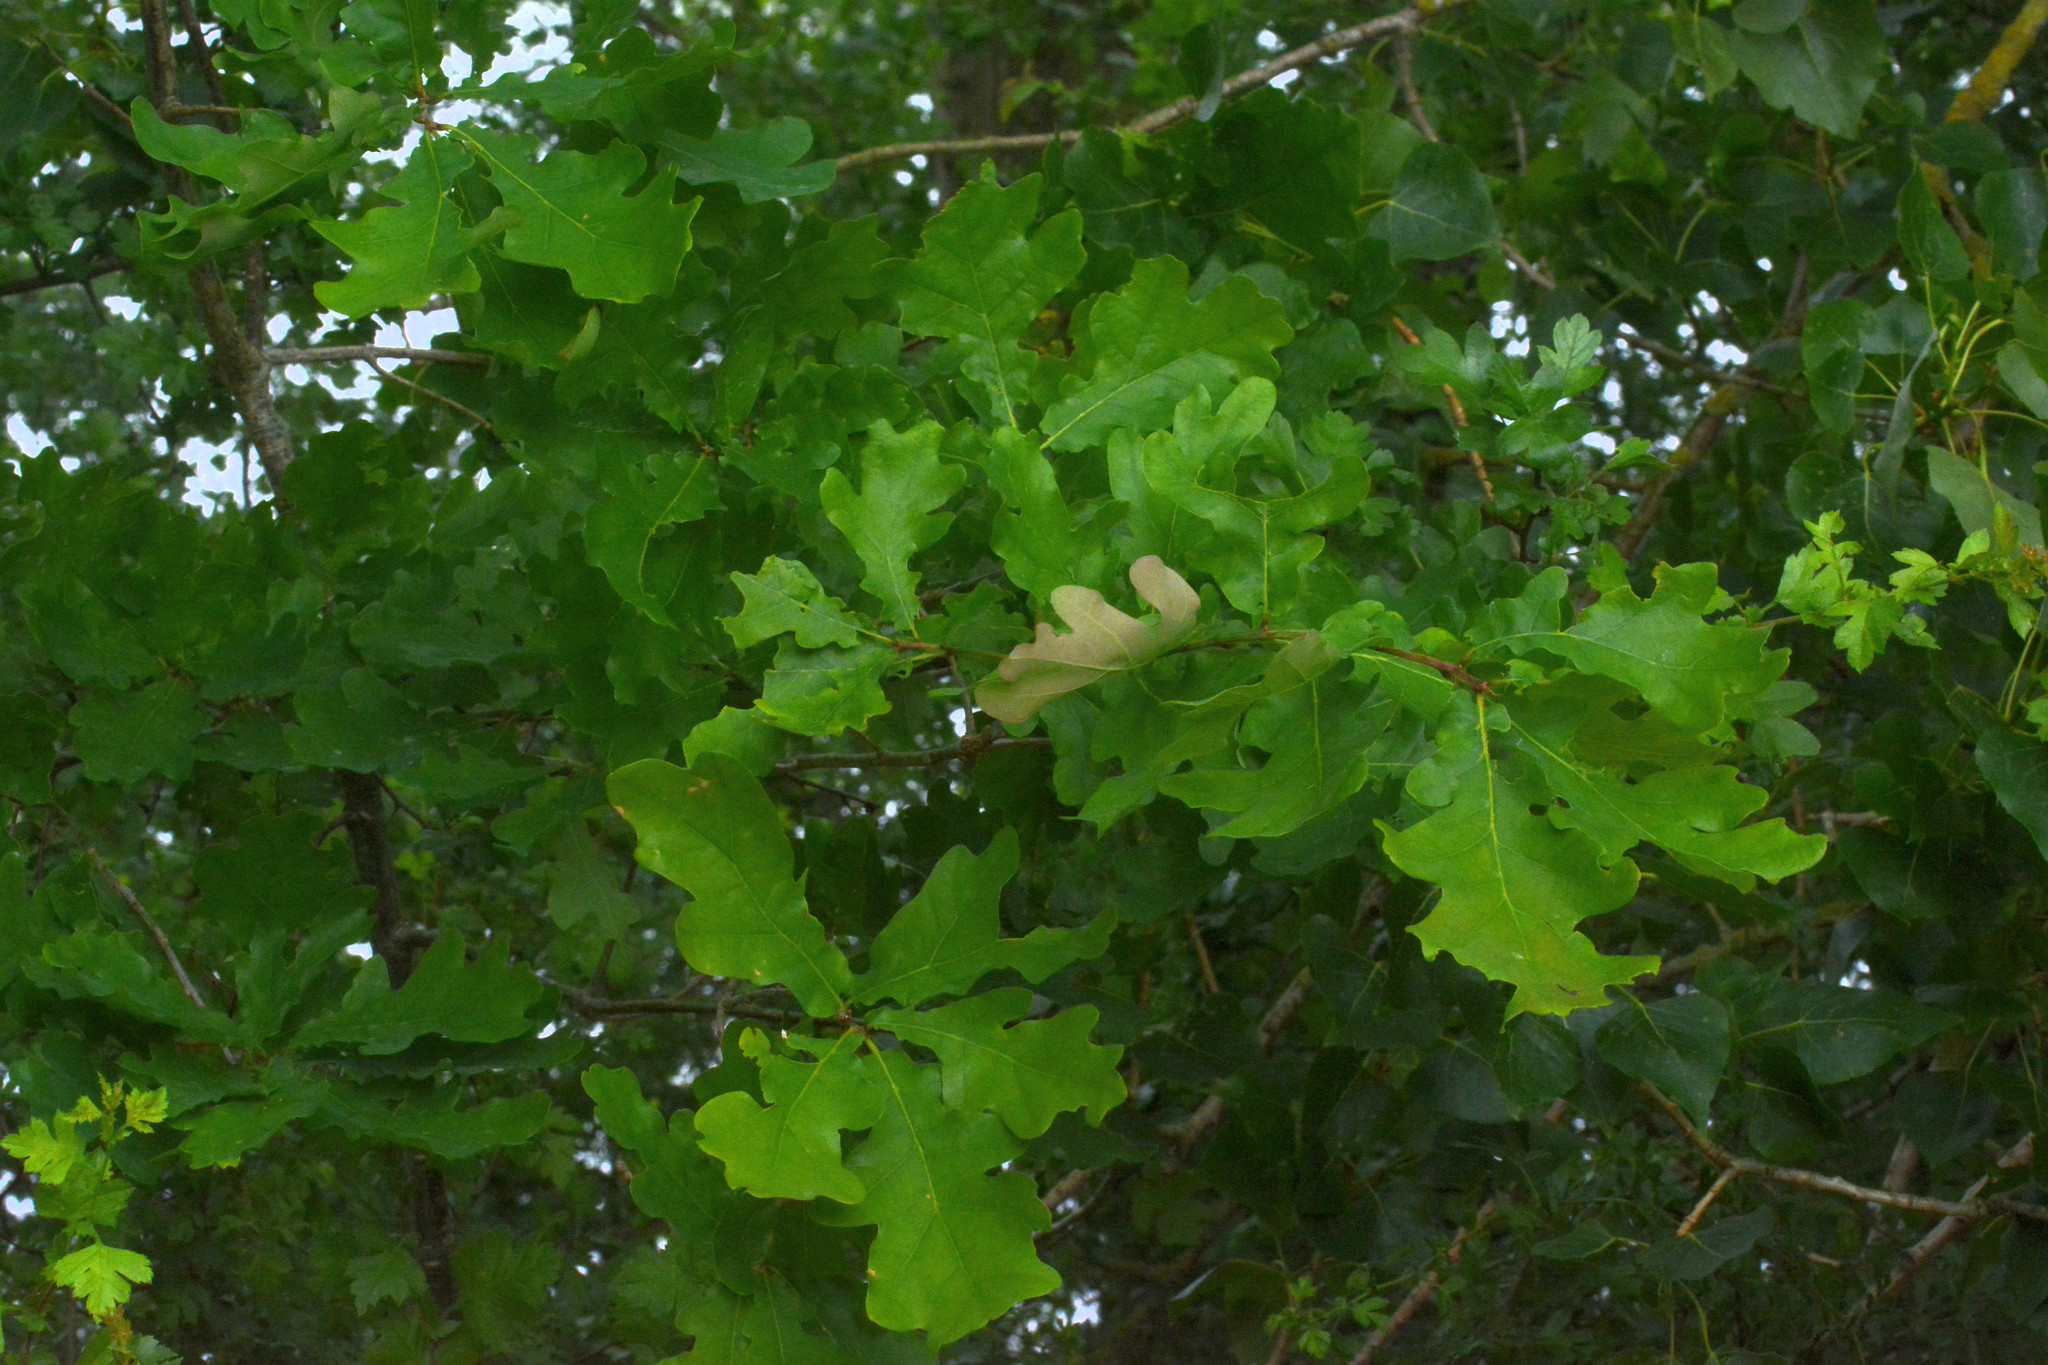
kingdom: Plantae
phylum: Tracheophyta
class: Magnoliopsida
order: Fagales
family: Fagaceae
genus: Quercus
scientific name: Quercus robur
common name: Pedunculate oak
